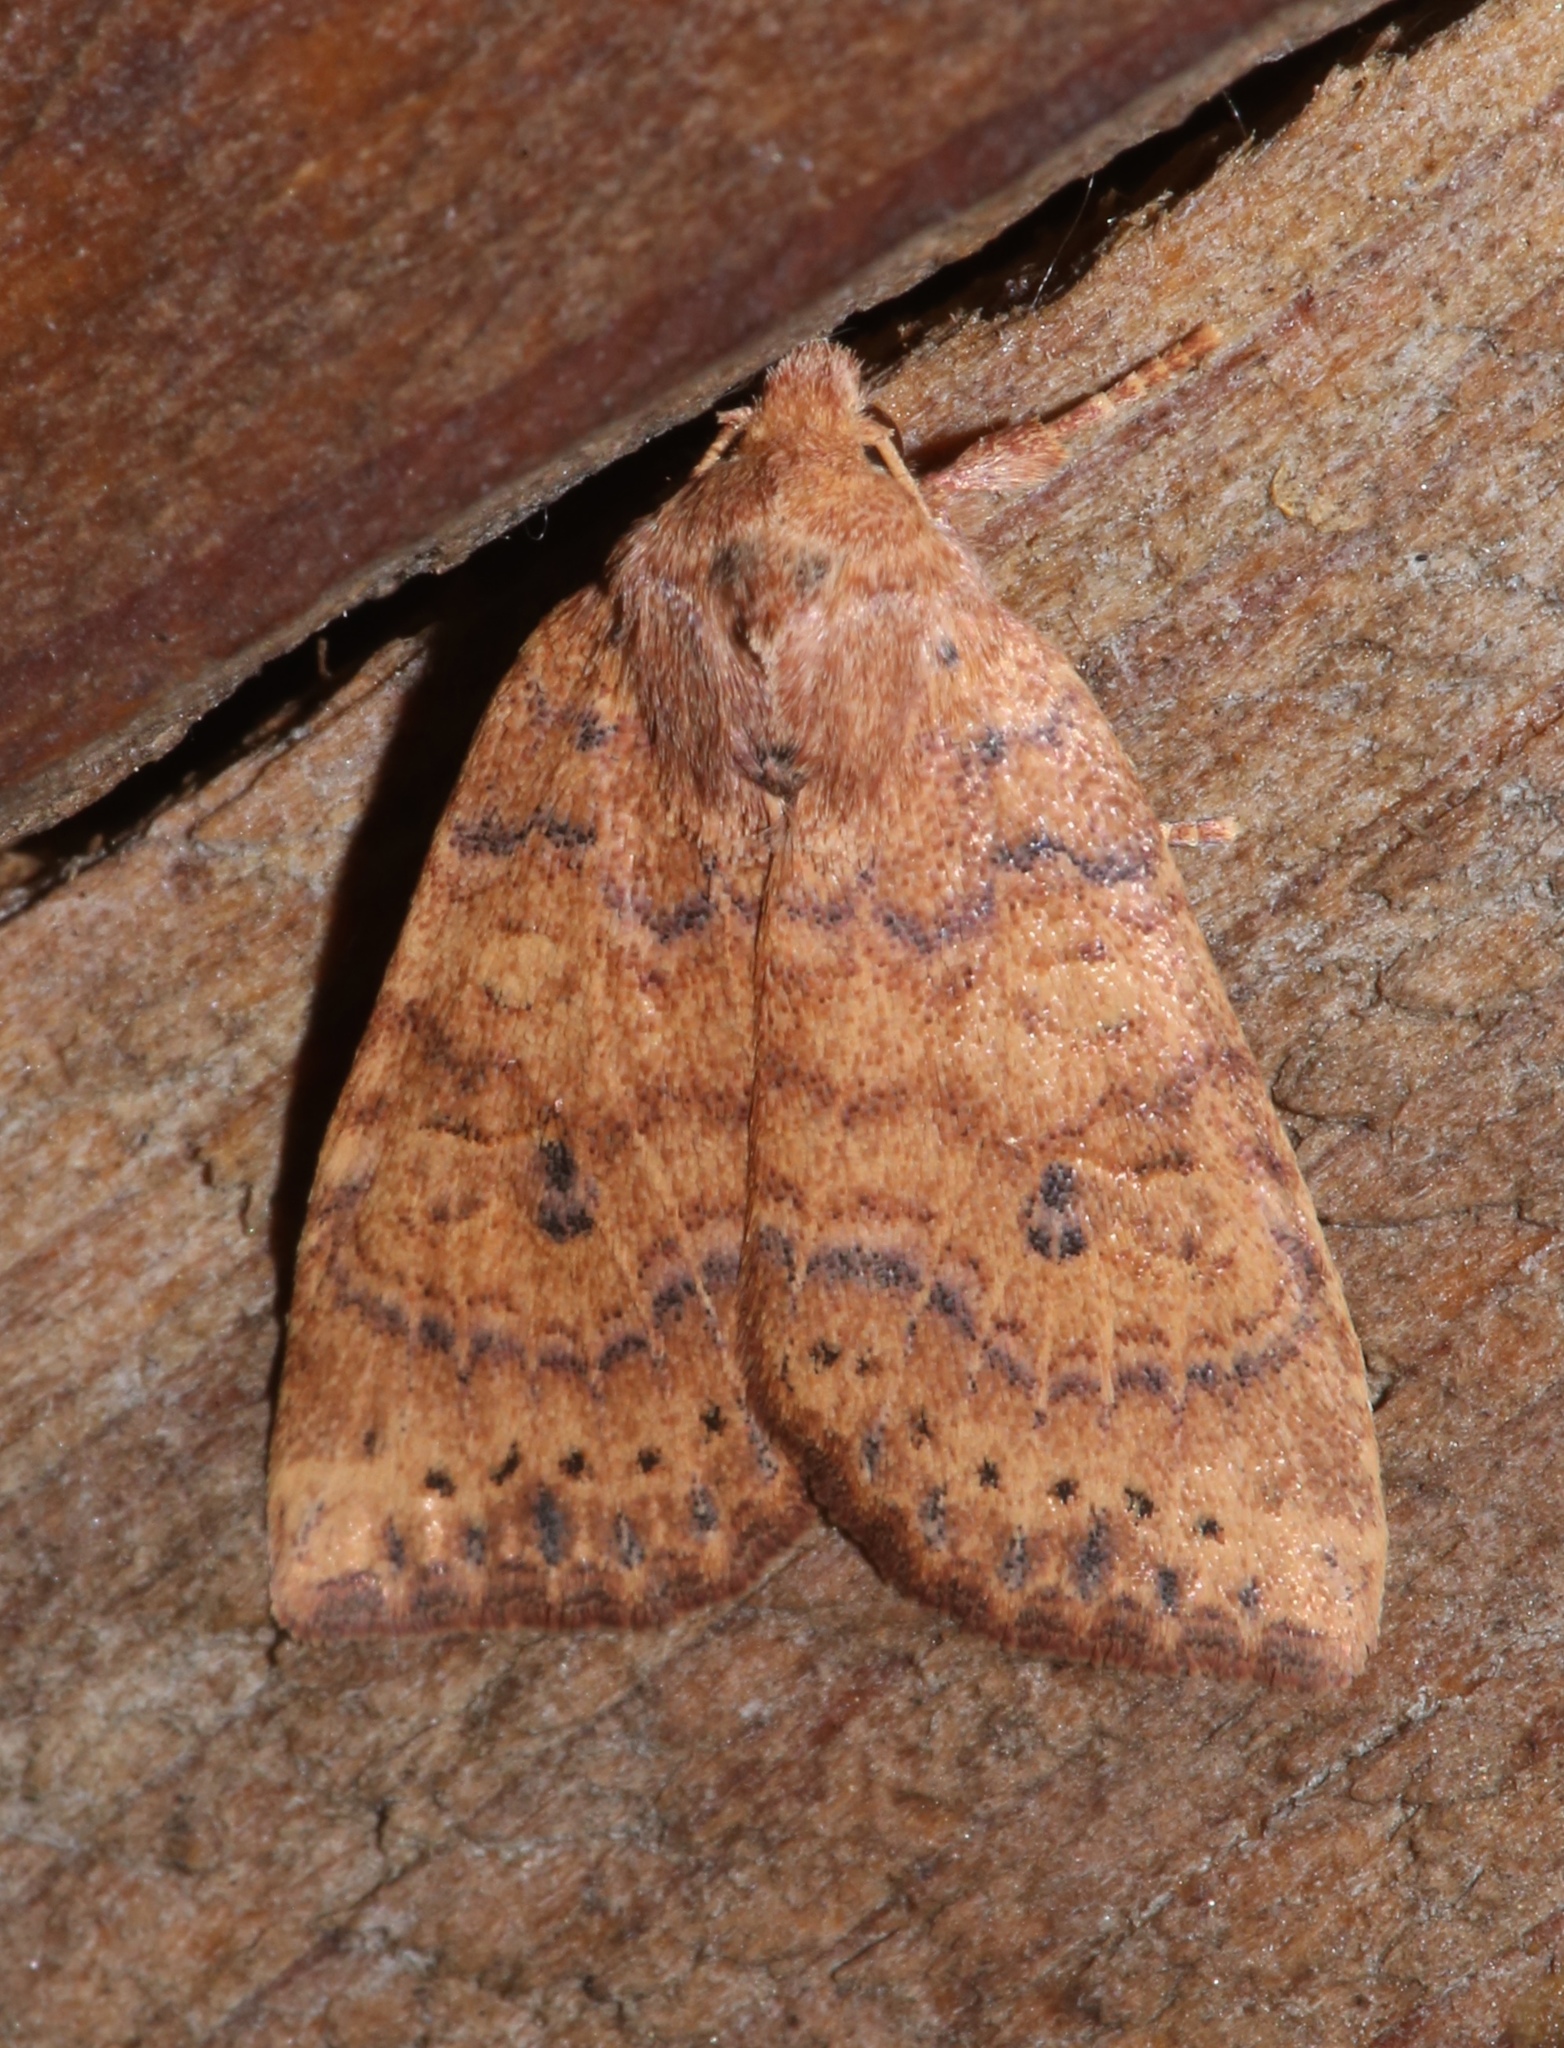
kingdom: Animalia
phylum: Arthropoda
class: Insecta
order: Lepidoptera
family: Noctuidae
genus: Anathix
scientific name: Anathix ralla
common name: Dotted sallow
